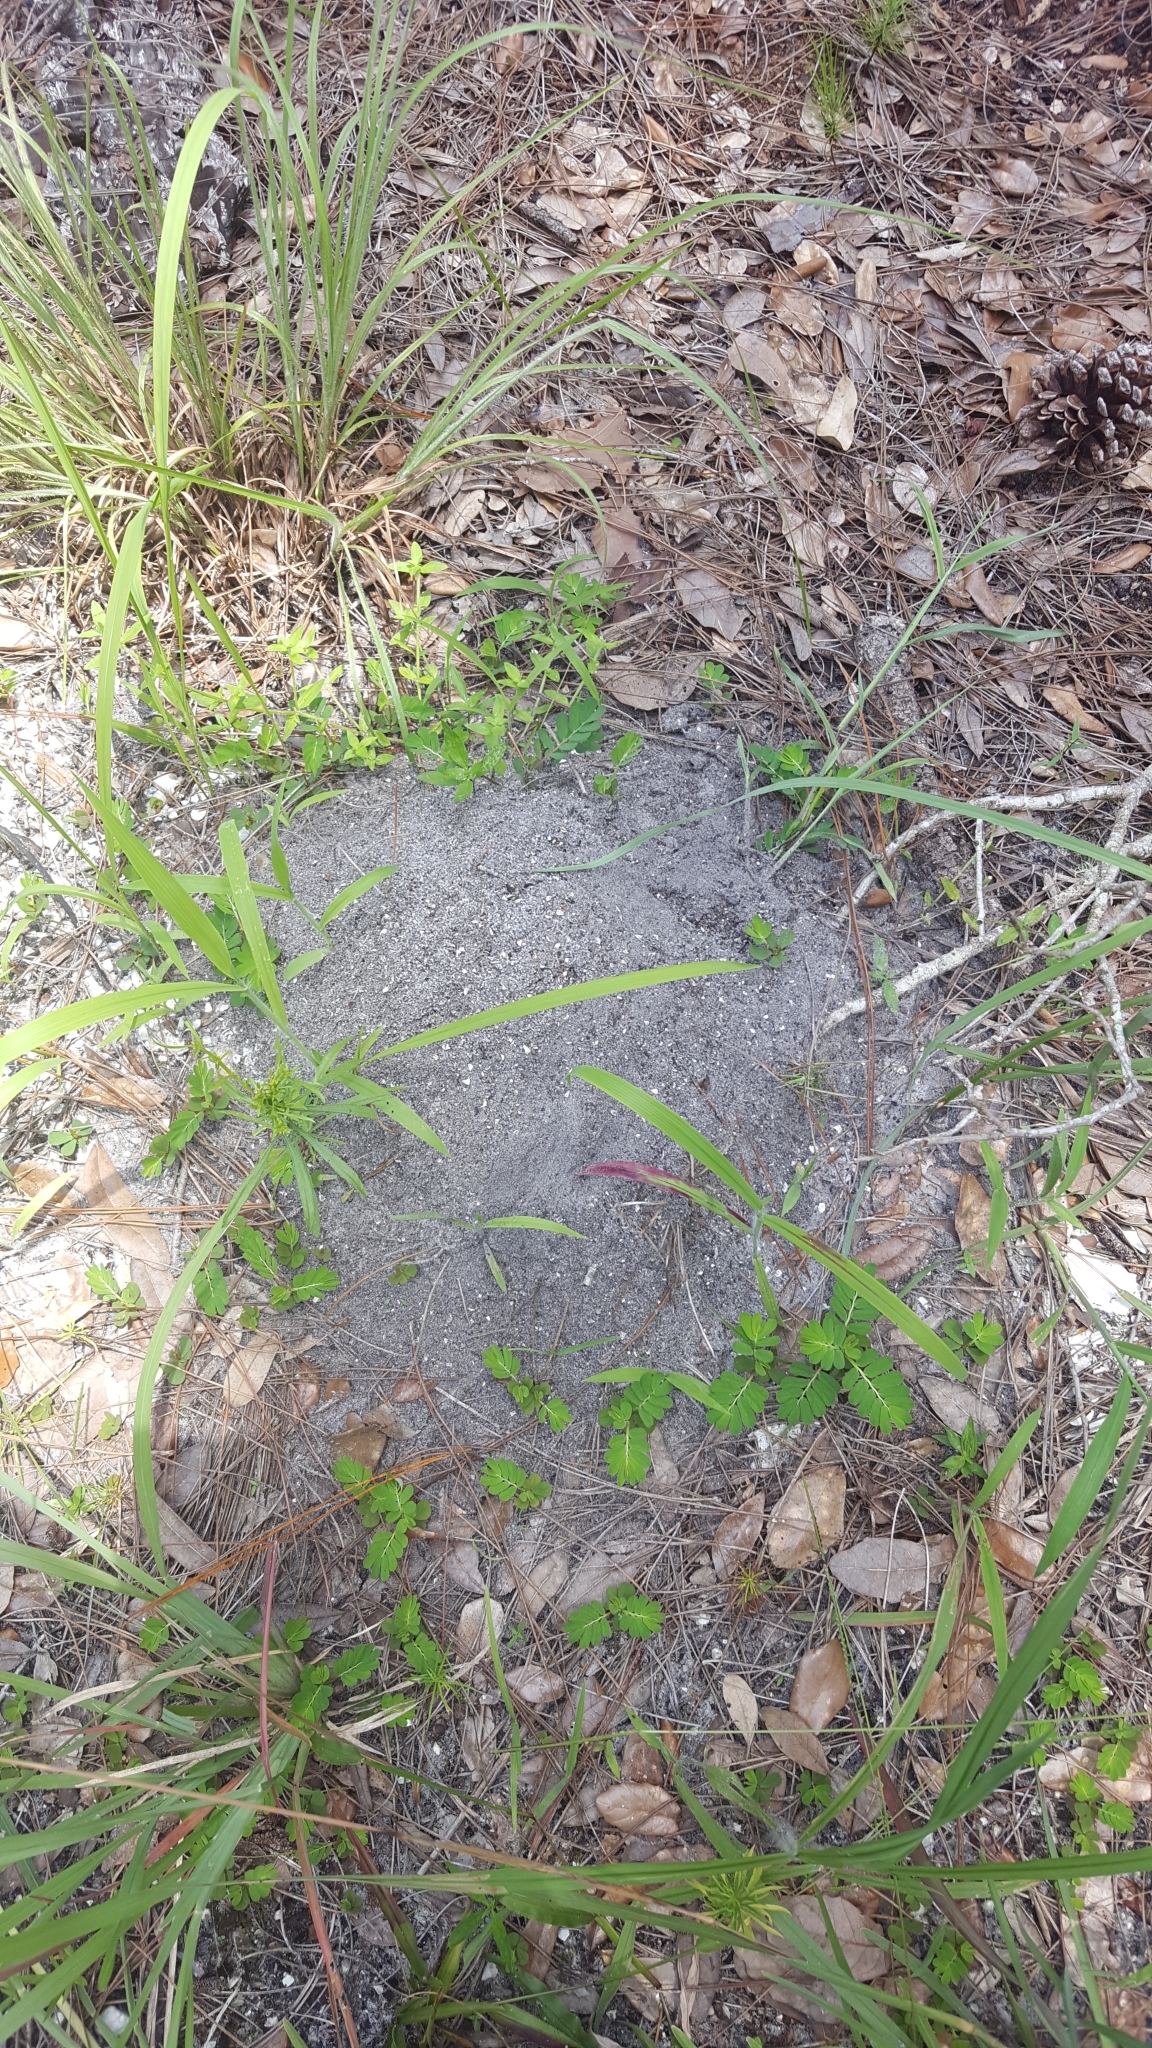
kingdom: Animalia
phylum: Arthropoda
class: Insecta
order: Hymenoptera
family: Formicidae
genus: Solenopsis
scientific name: Solenopsis invicta
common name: Red imported fire ant
